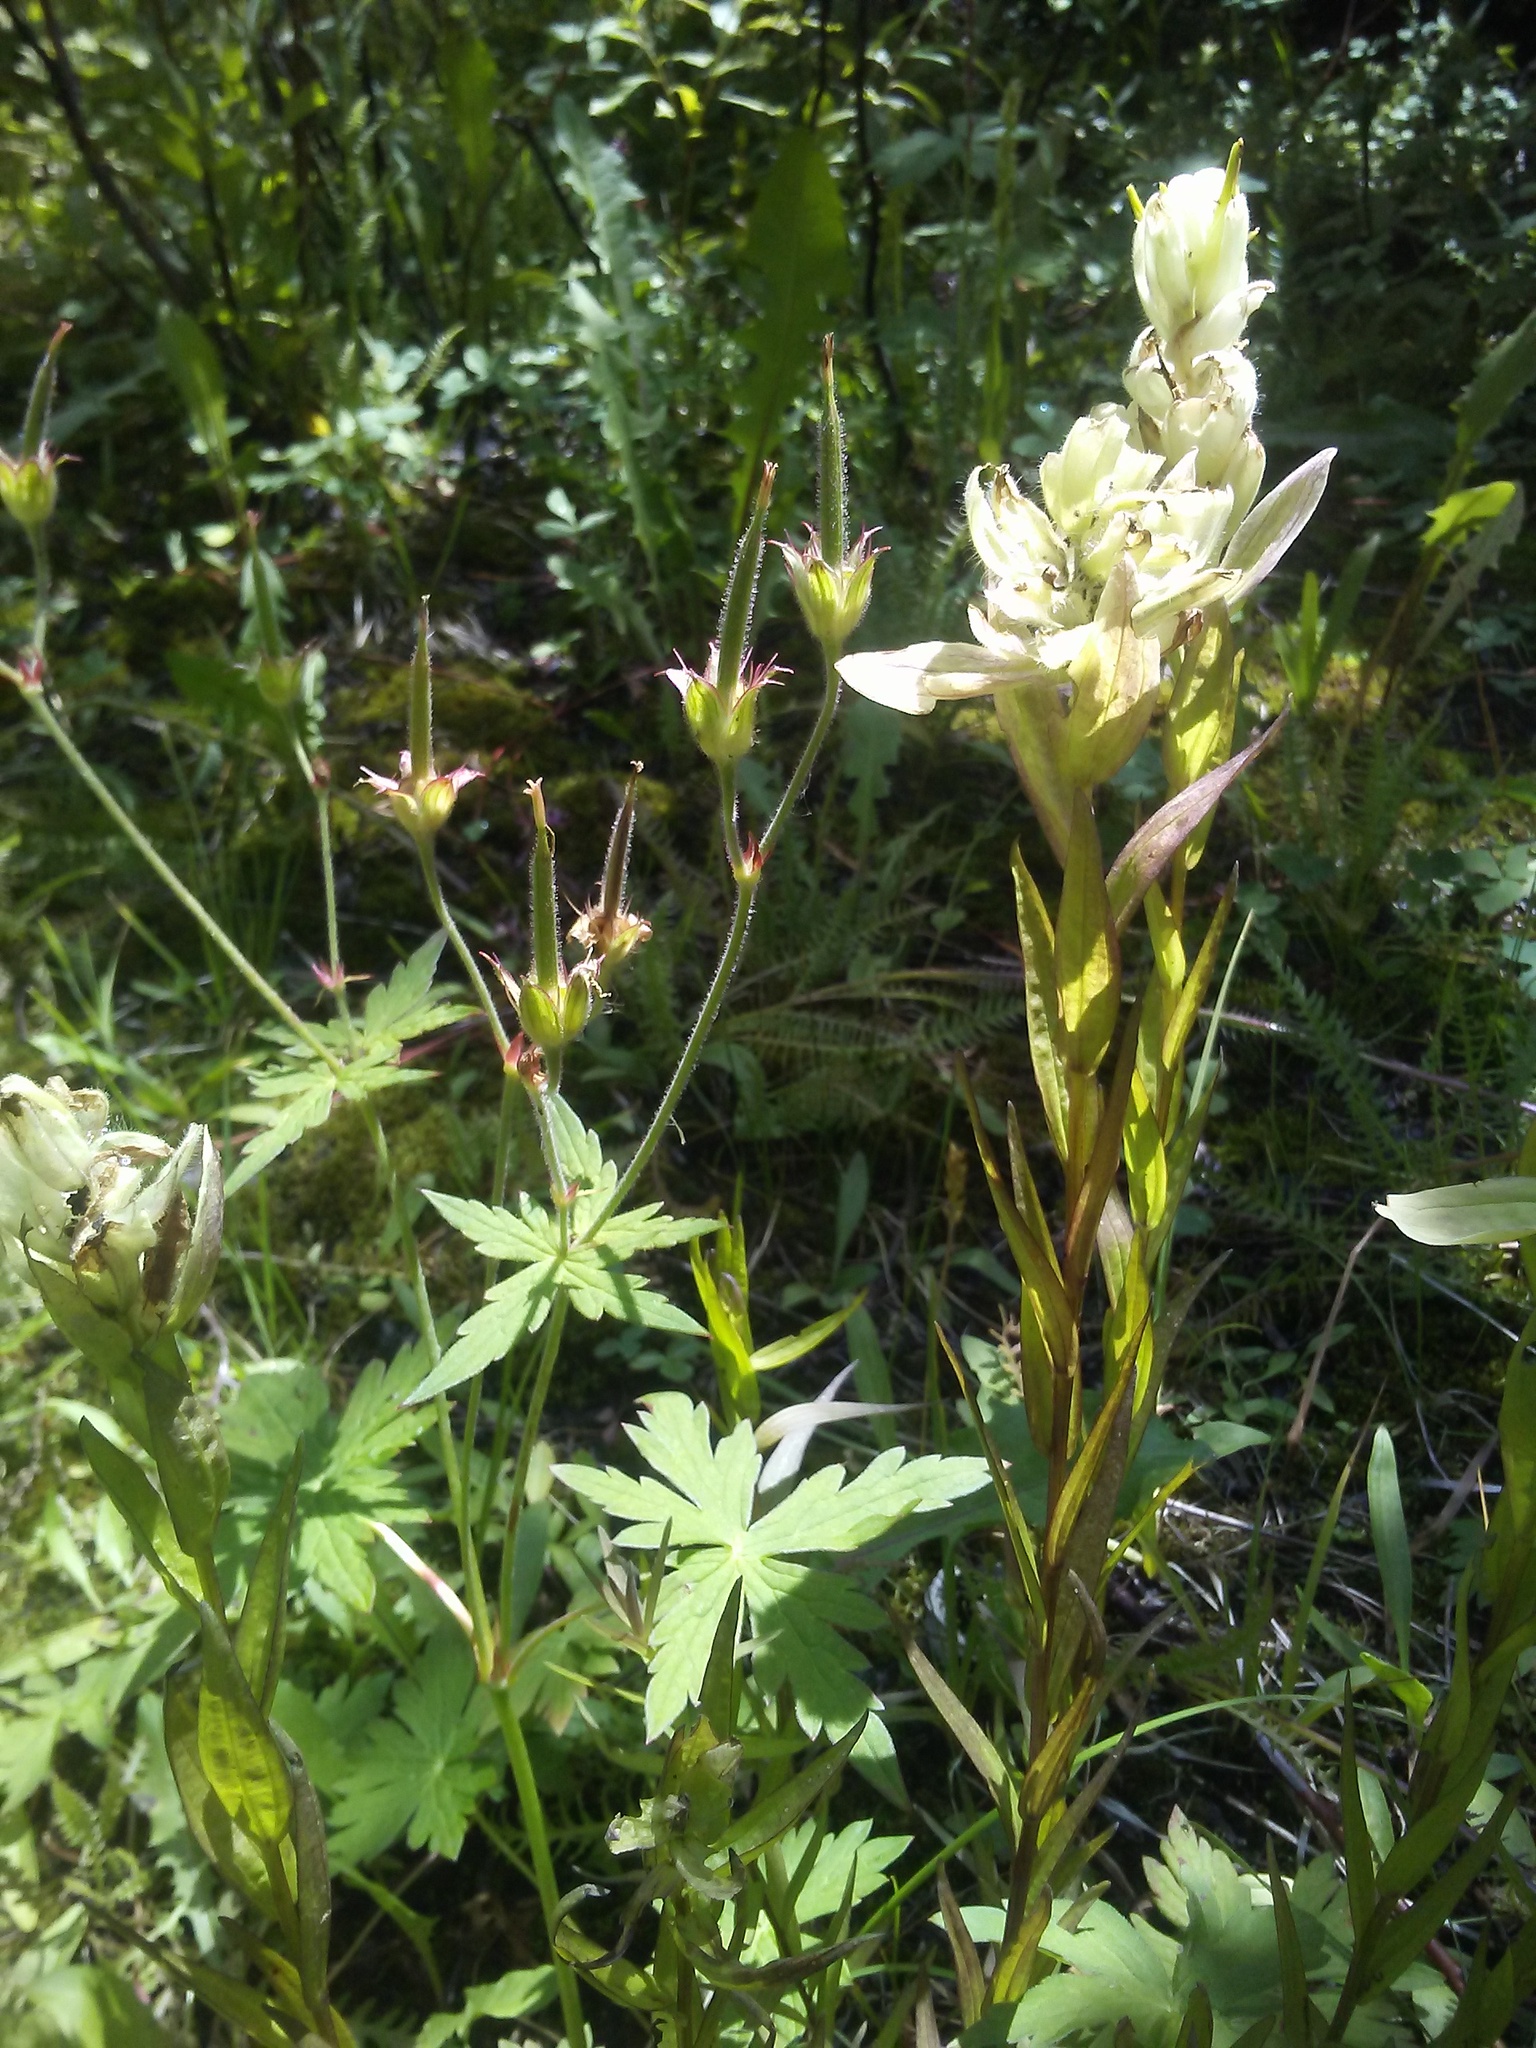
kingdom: Plantae
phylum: Tracheophyta
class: Magnoliopsida
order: Lamiales
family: Orobanchaceae
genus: Castilleja
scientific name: Castilleja septentrionalis
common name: Northeastern paintbrush
